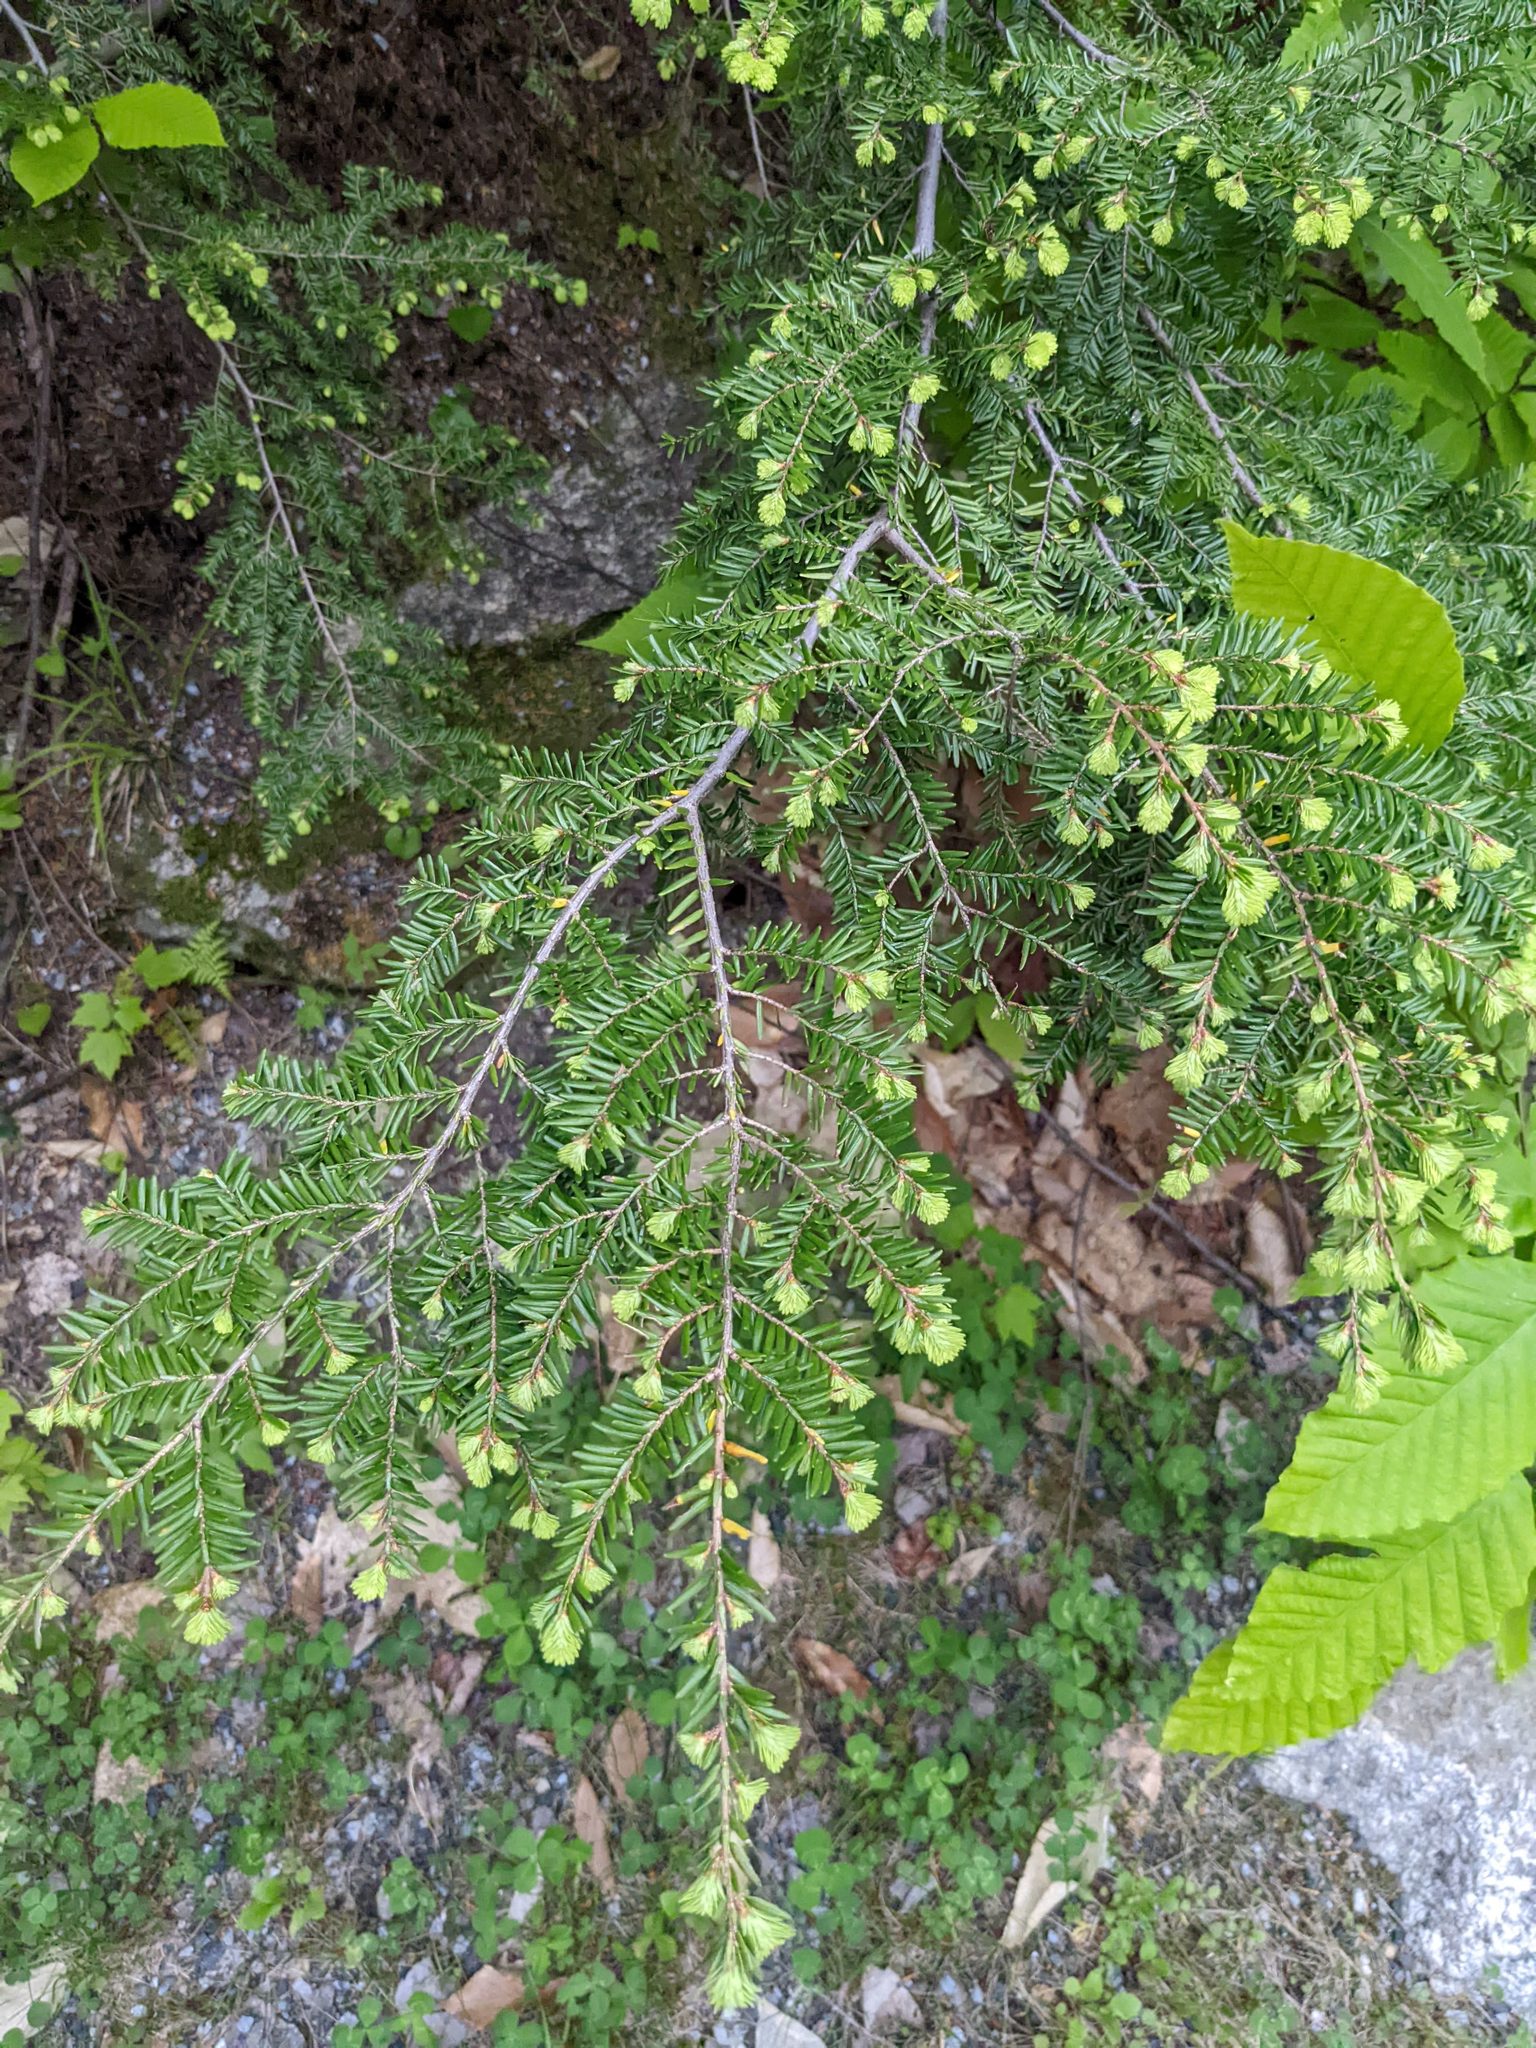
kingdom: Plantae
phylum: Tracheophyta
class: Pinopsida
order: Pinales
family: Pinaceae
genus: Tsuga
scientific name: Tsuga canadensis
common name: Eastern hemlock
